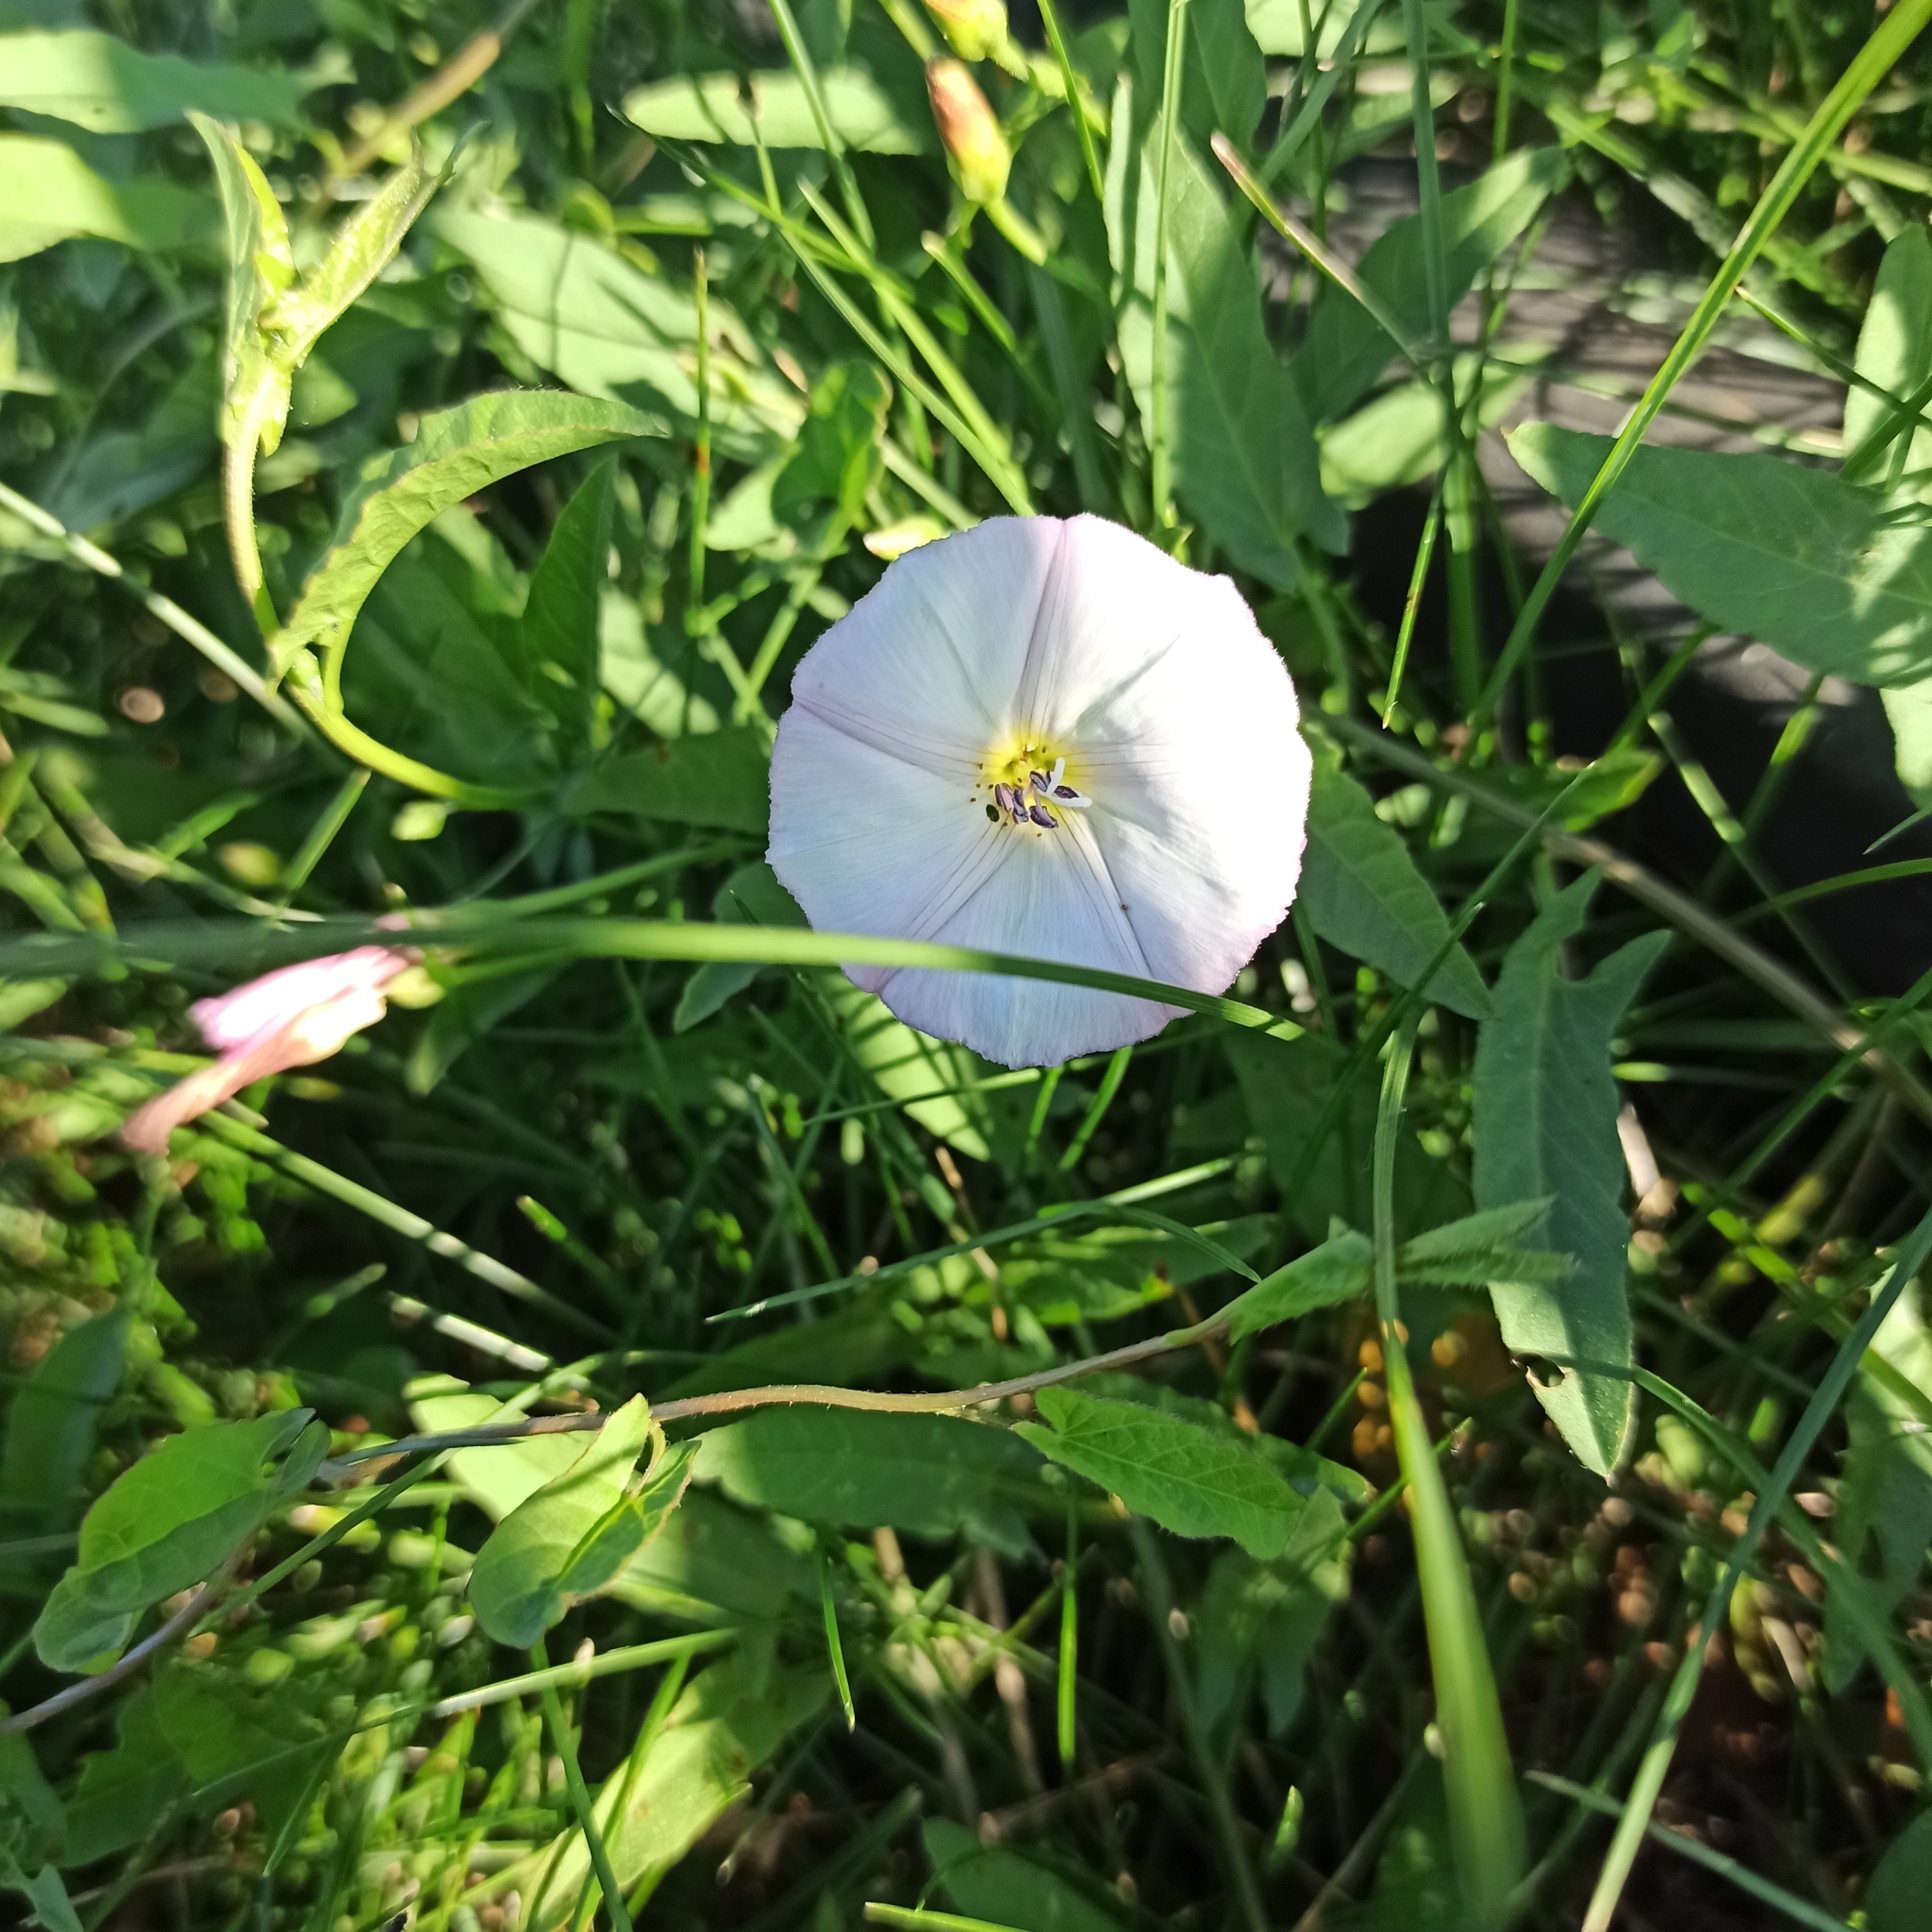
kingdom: Plantae
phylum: Tracheophyta
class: Magnoliopsida
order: Solanales
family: Convolvulaceae
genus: Convolvulus
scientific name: Convolvulus arvensis
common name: Field bindweed
